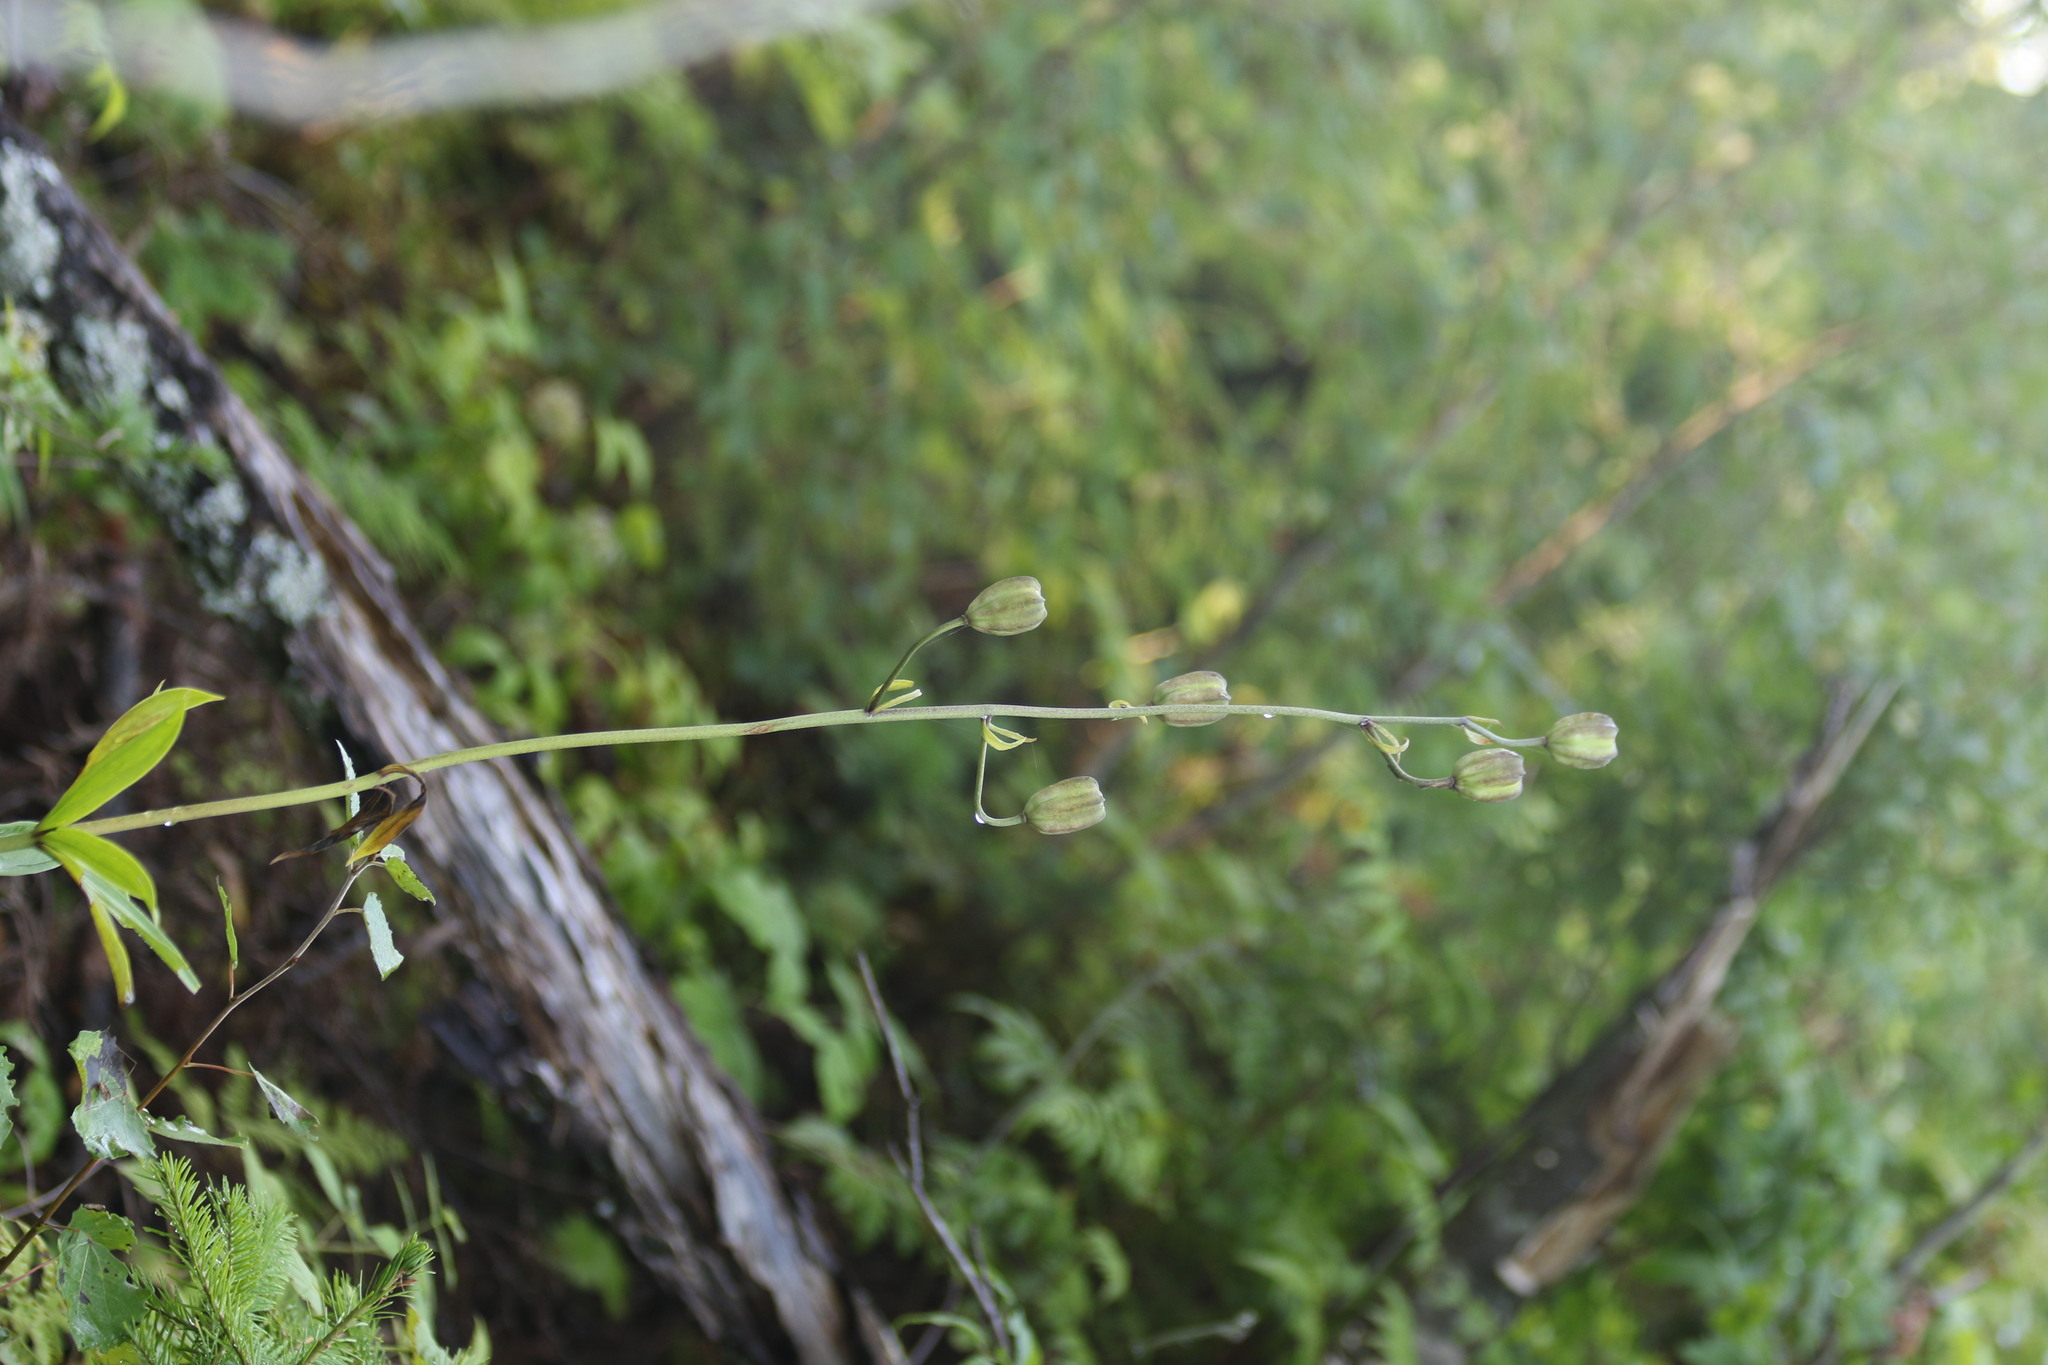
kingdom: Plantae
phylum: Tracheophyta
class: Liliopsida
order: Liliales
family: Liliaceae
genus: Lilium
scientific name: Lilium martagon
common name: Martagon lily
